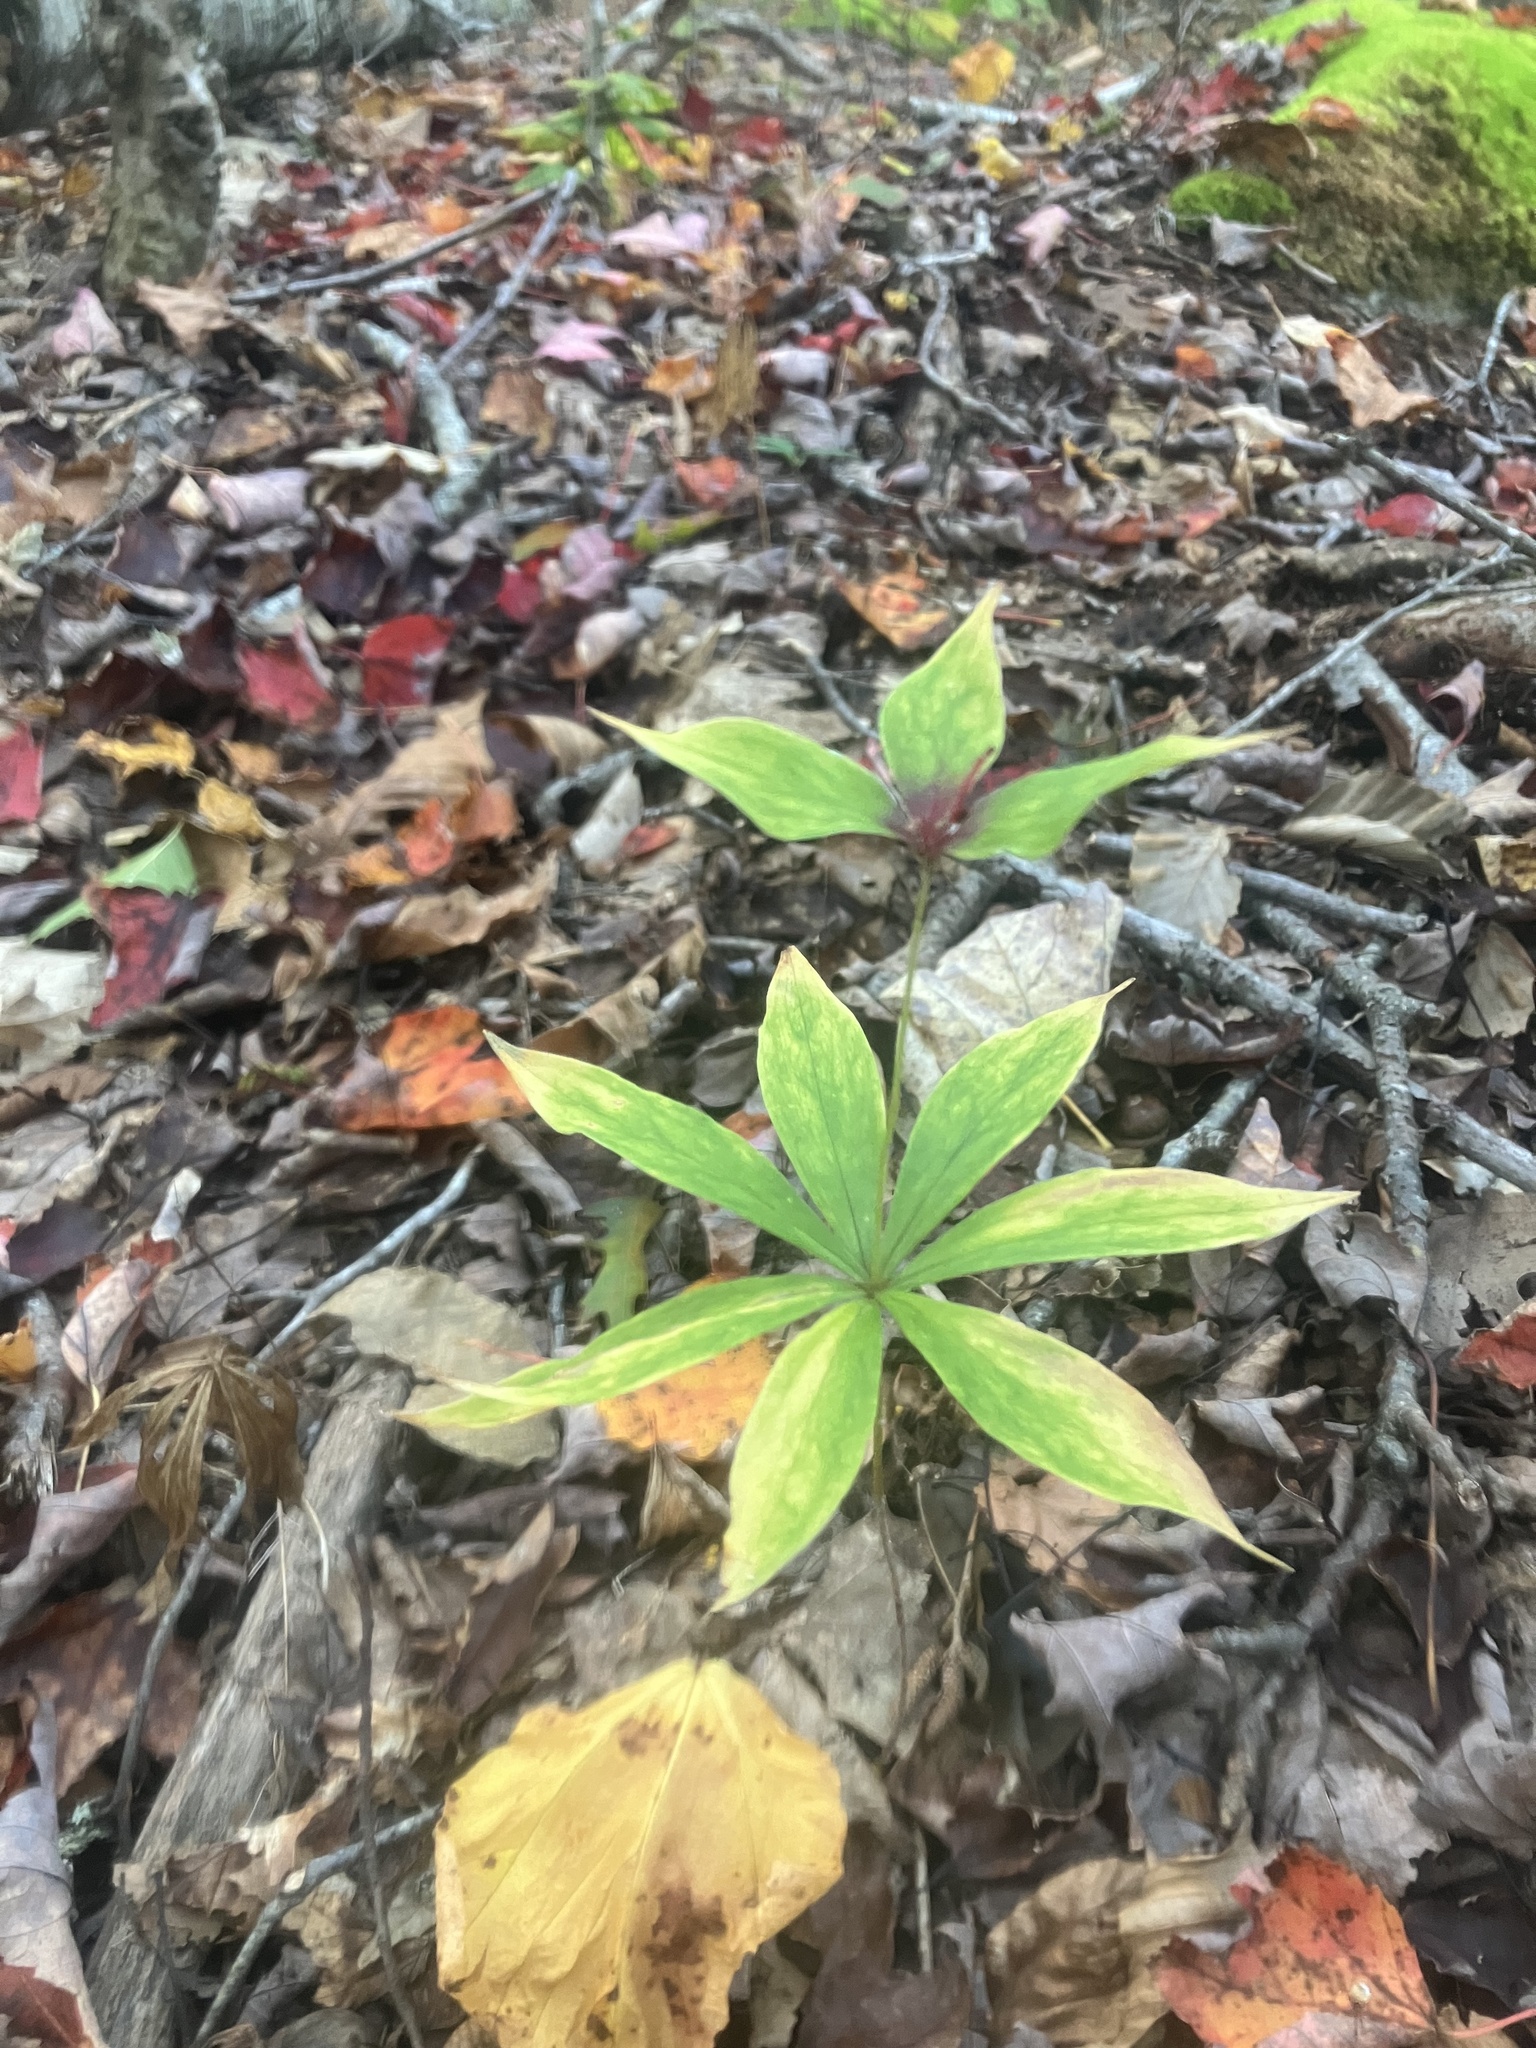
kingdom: Plantae
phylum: Tracheophyta
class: Liliopsida
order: Liliales
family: Liliaceae
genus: Medeola
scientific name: Medeola virginiana
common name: Indian cucumber-root
